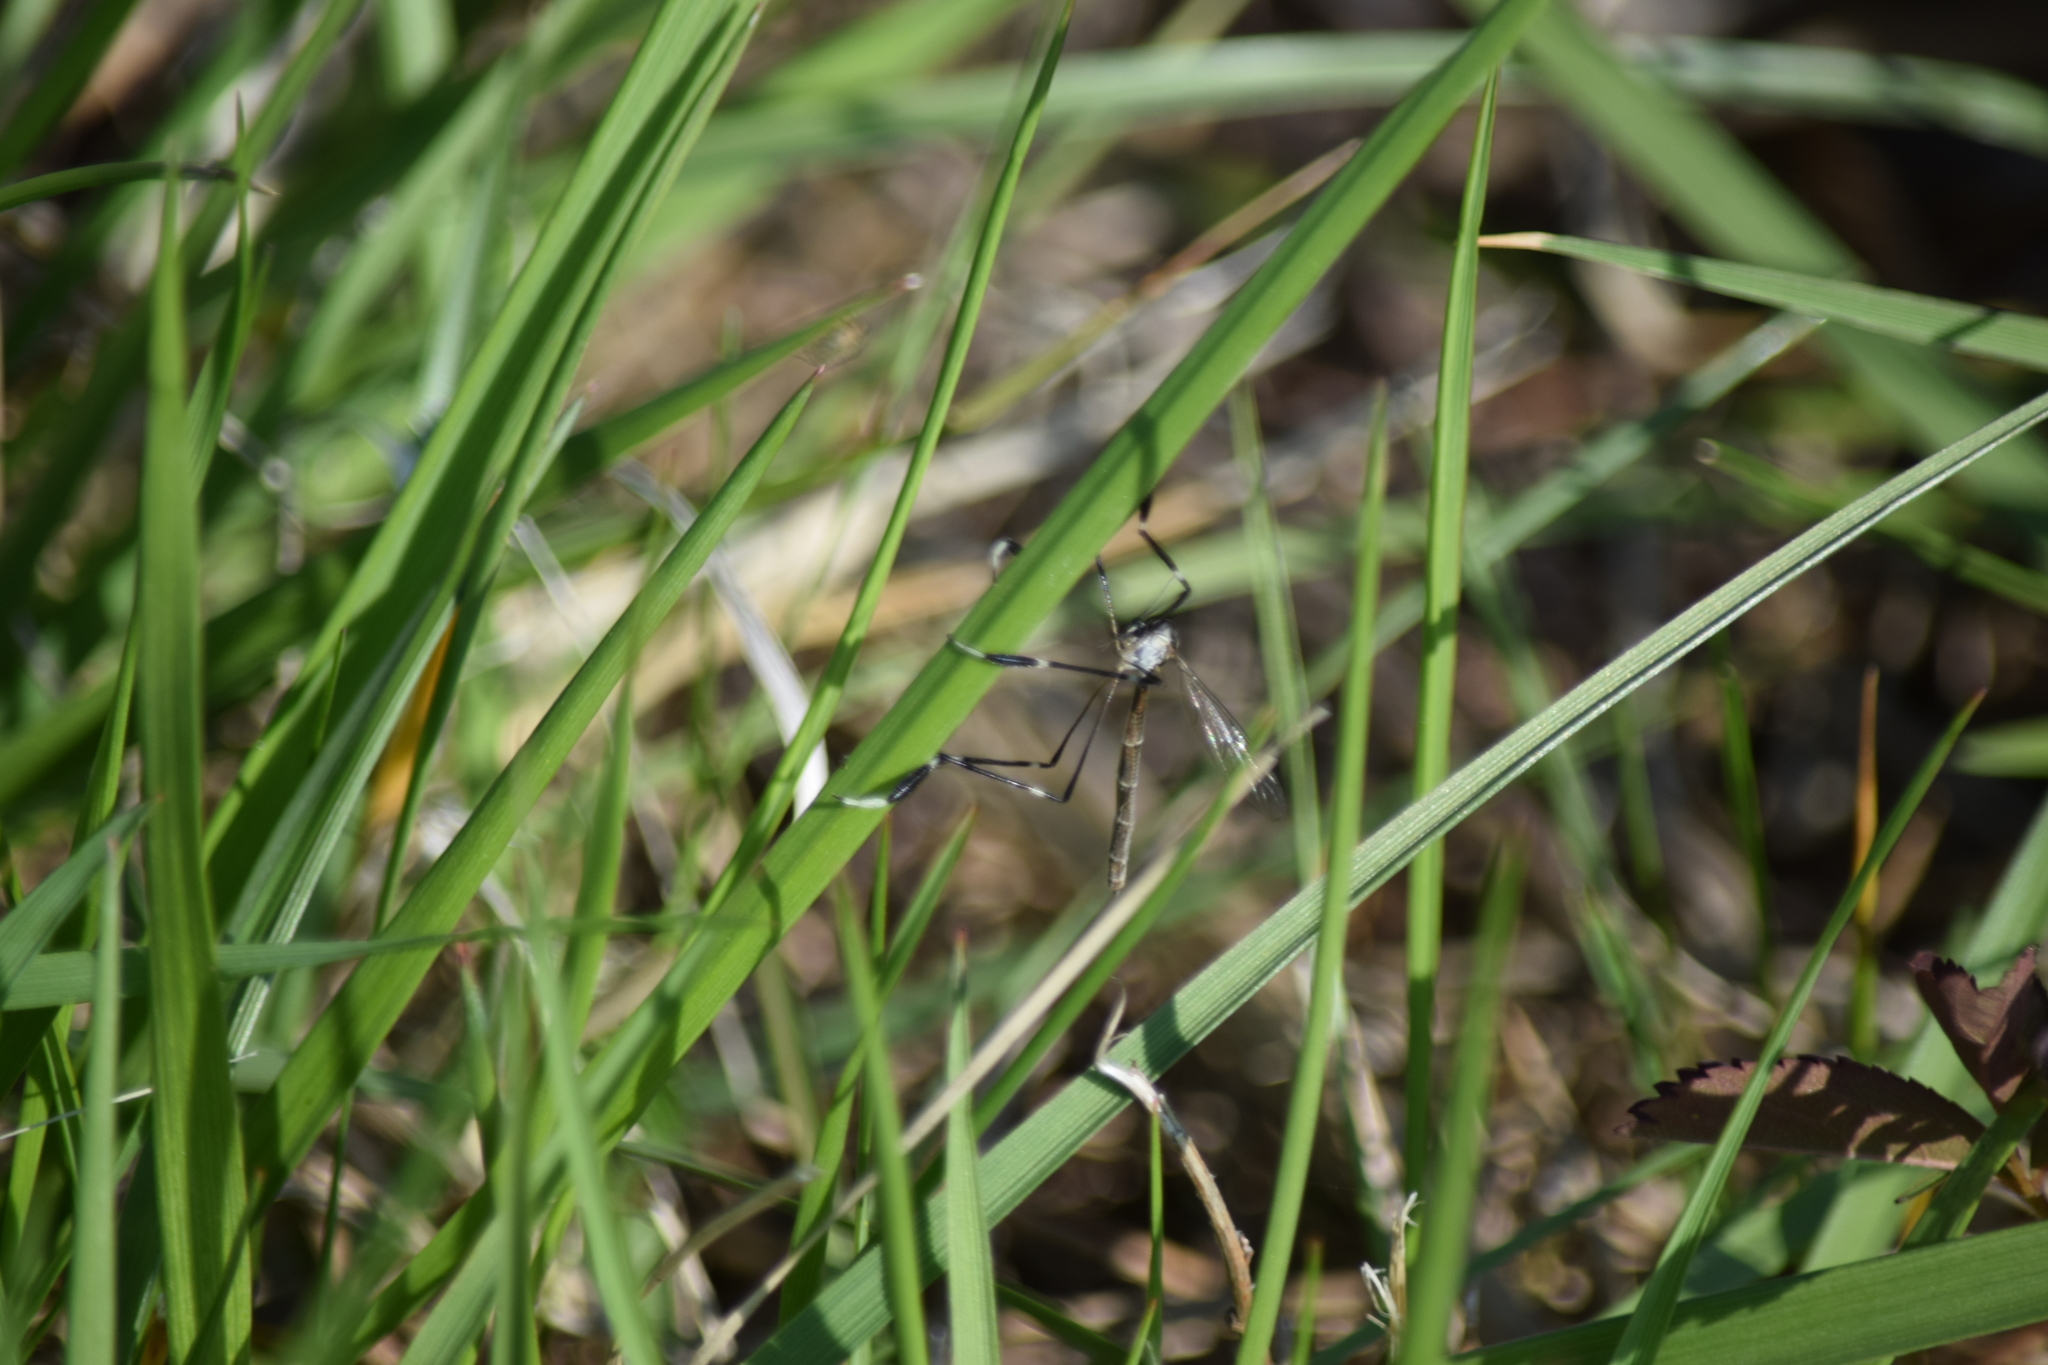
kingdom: Animalia
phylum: Arthropoda
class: Insecta
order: Diptera
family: Ptychopteridae
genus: Bittacomorpha
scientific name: Bittacomorpha clavipes
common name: Eastern phantom crane fly
